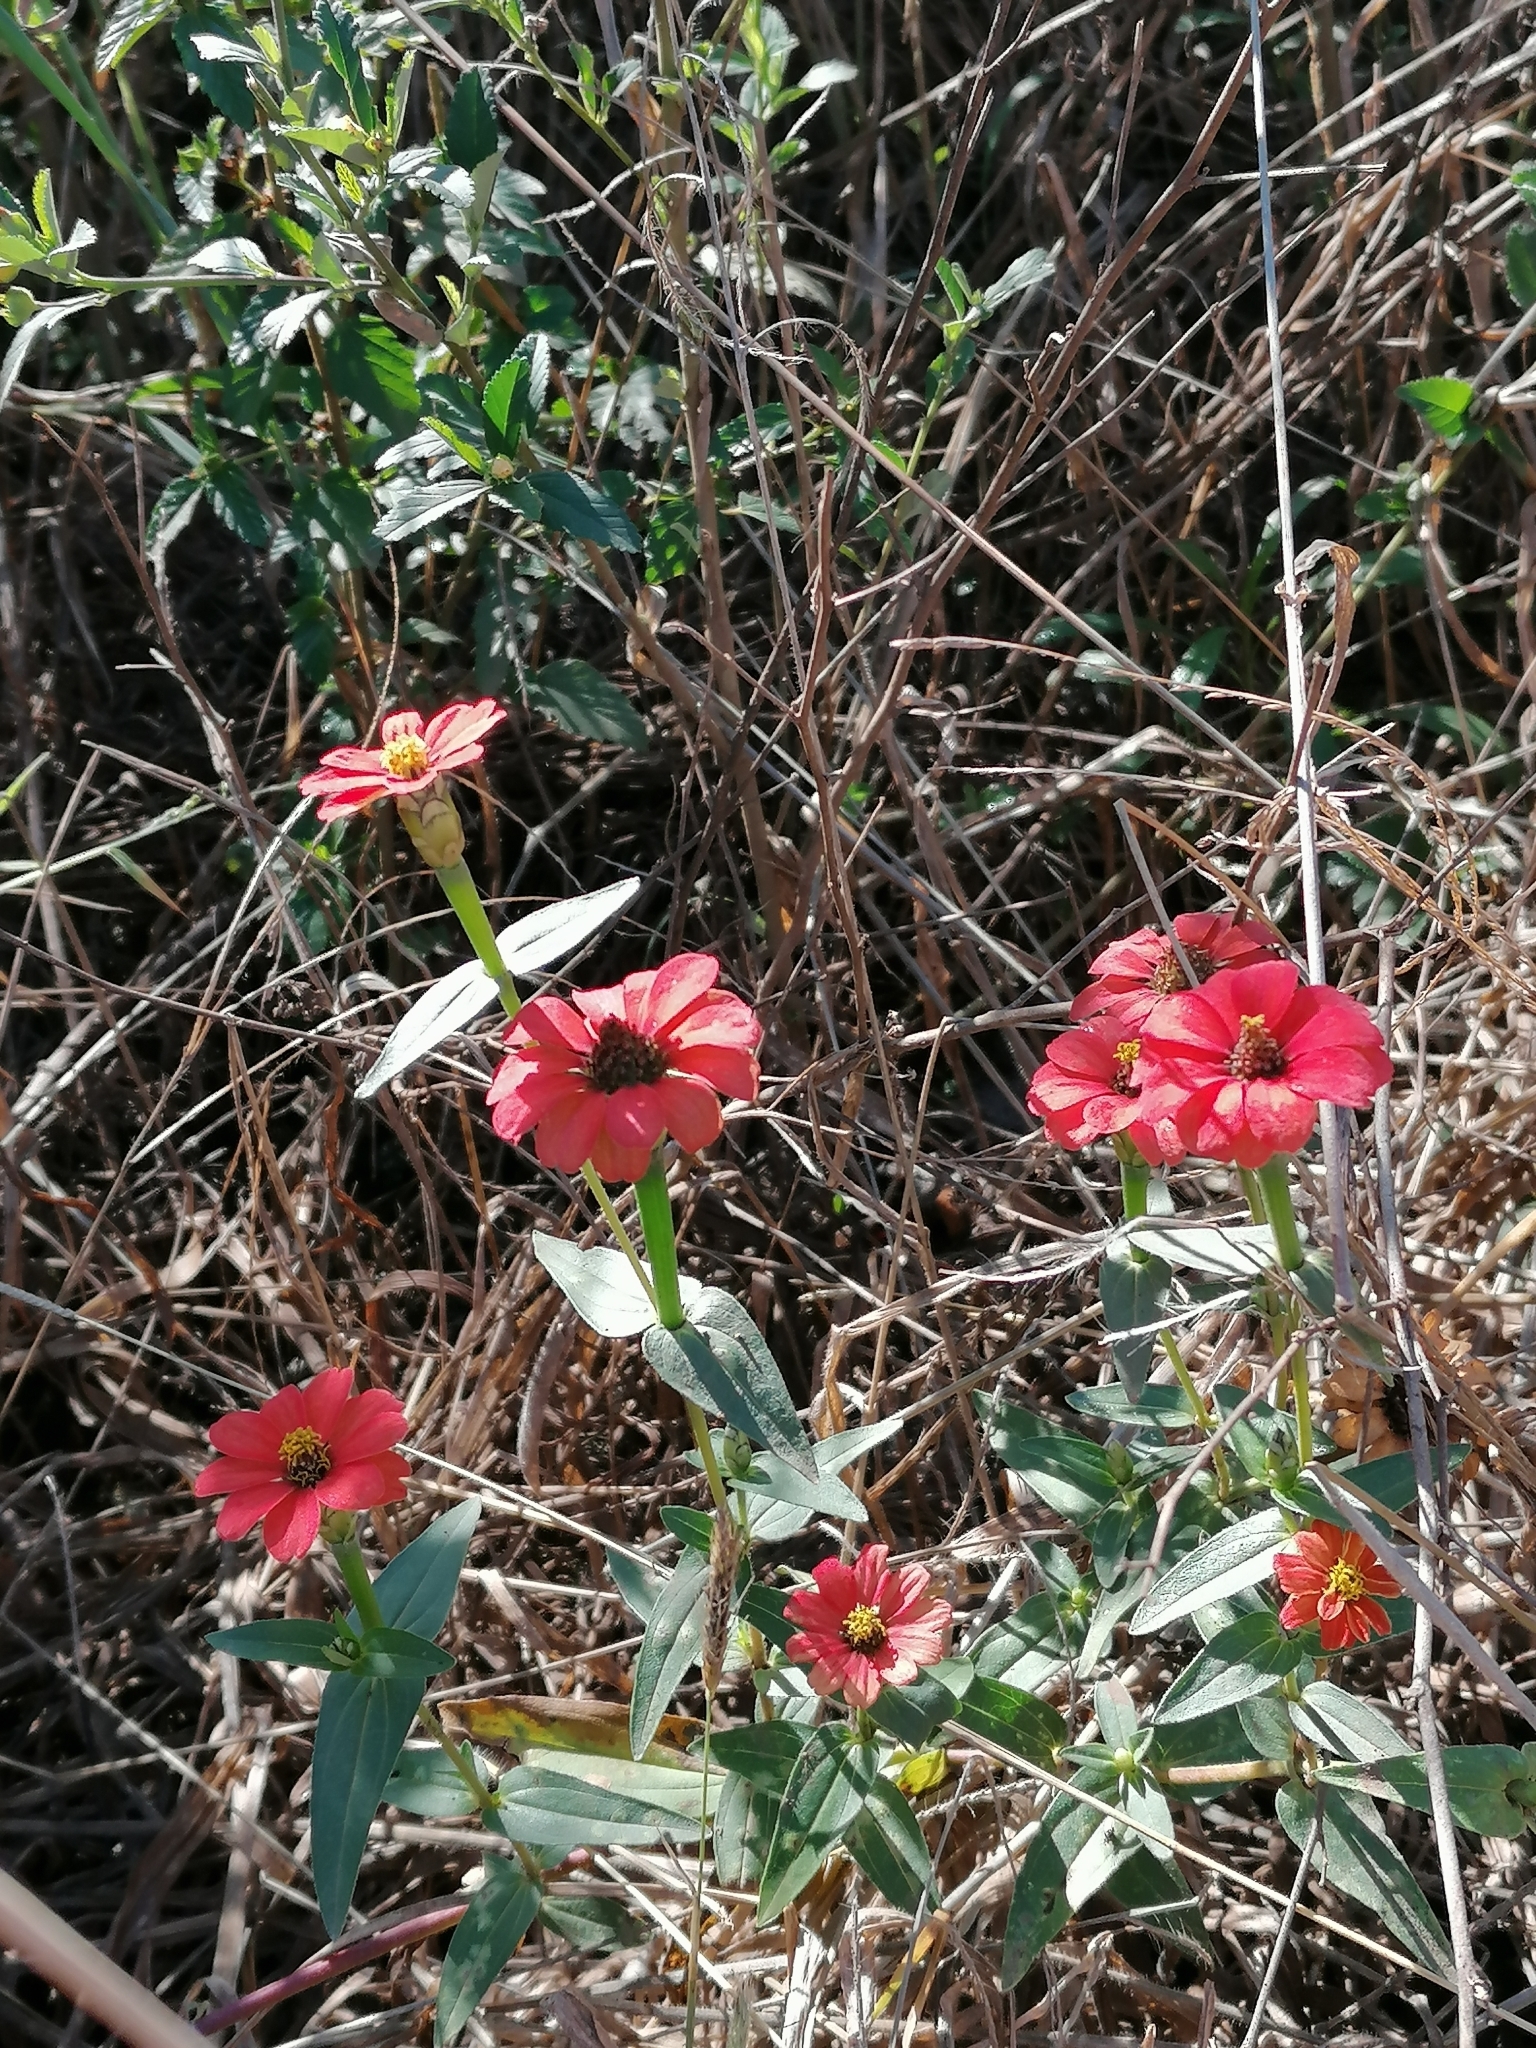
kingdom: Plantae
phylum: Tracheophyta
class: Magnoliopsida
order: Asterales
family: Asteraceae
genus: Zinnia
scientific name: Zinnia peruviana
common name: Peruvian zinnia
